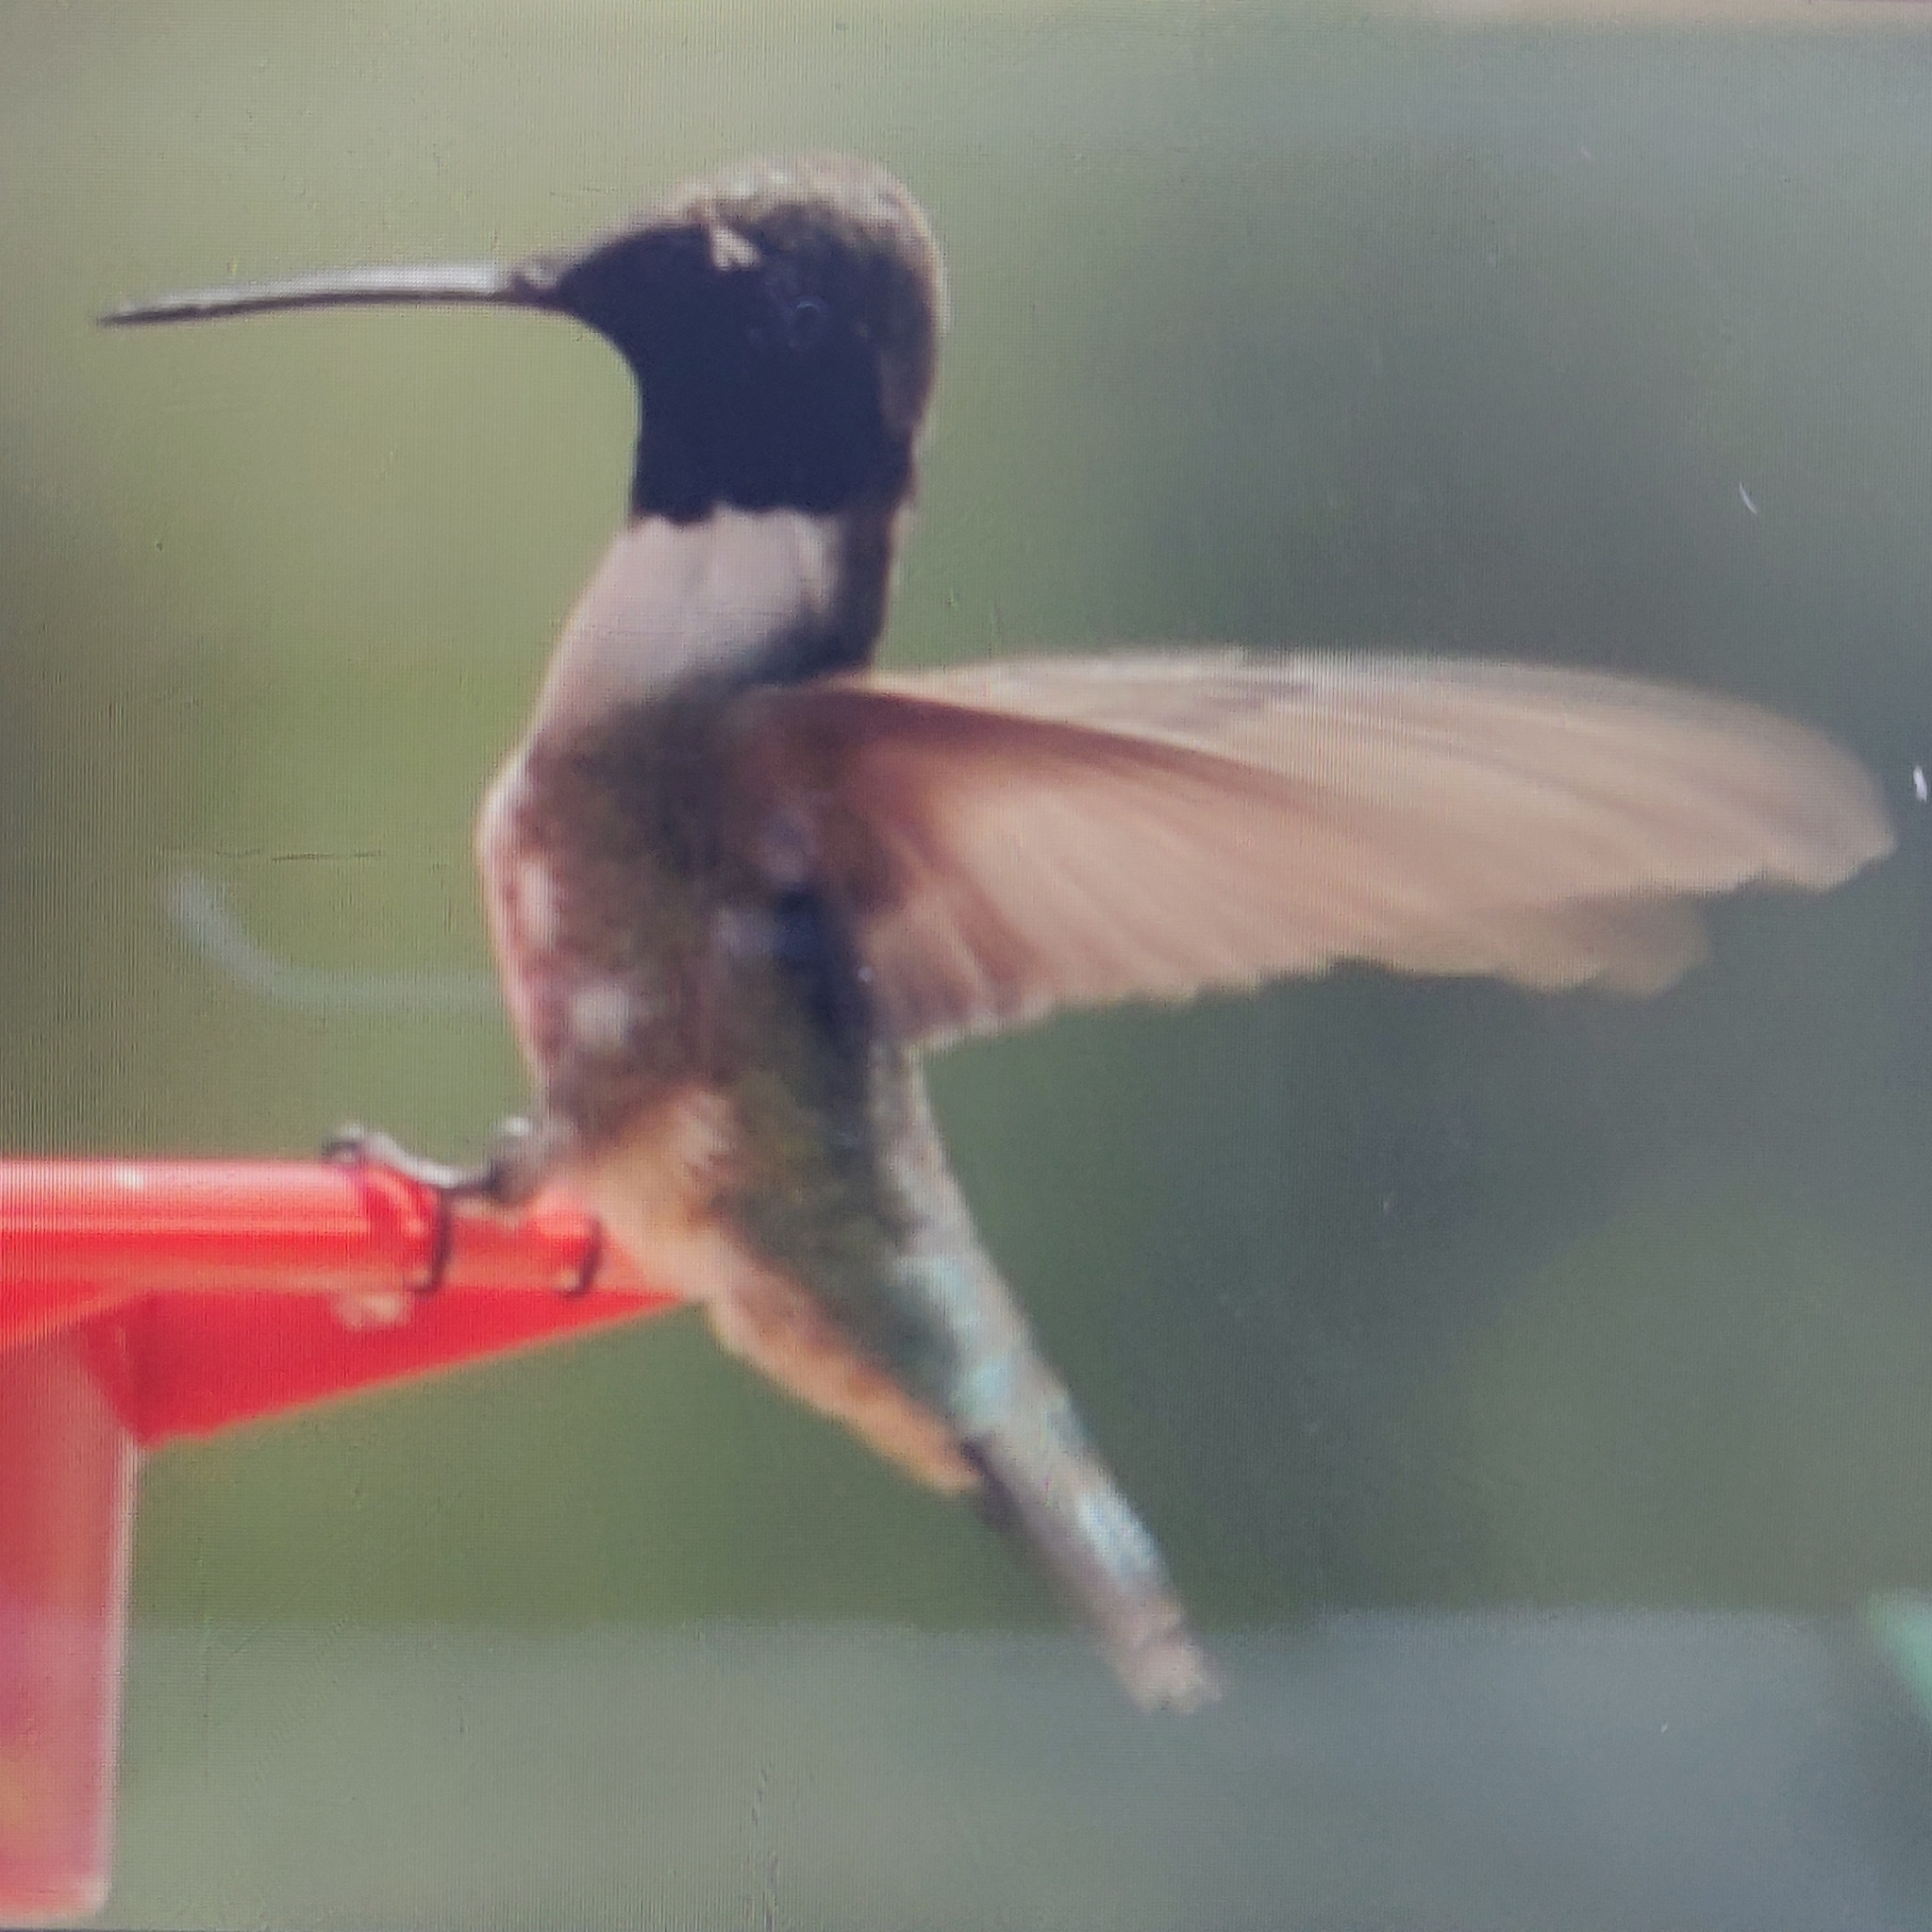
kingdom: Animalia
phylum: Chordata
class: Aves
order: Apodiformes
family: Trochilidae
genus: Archilochus
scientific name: Archilochus alexandri
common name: Black-chinned hummingbird
